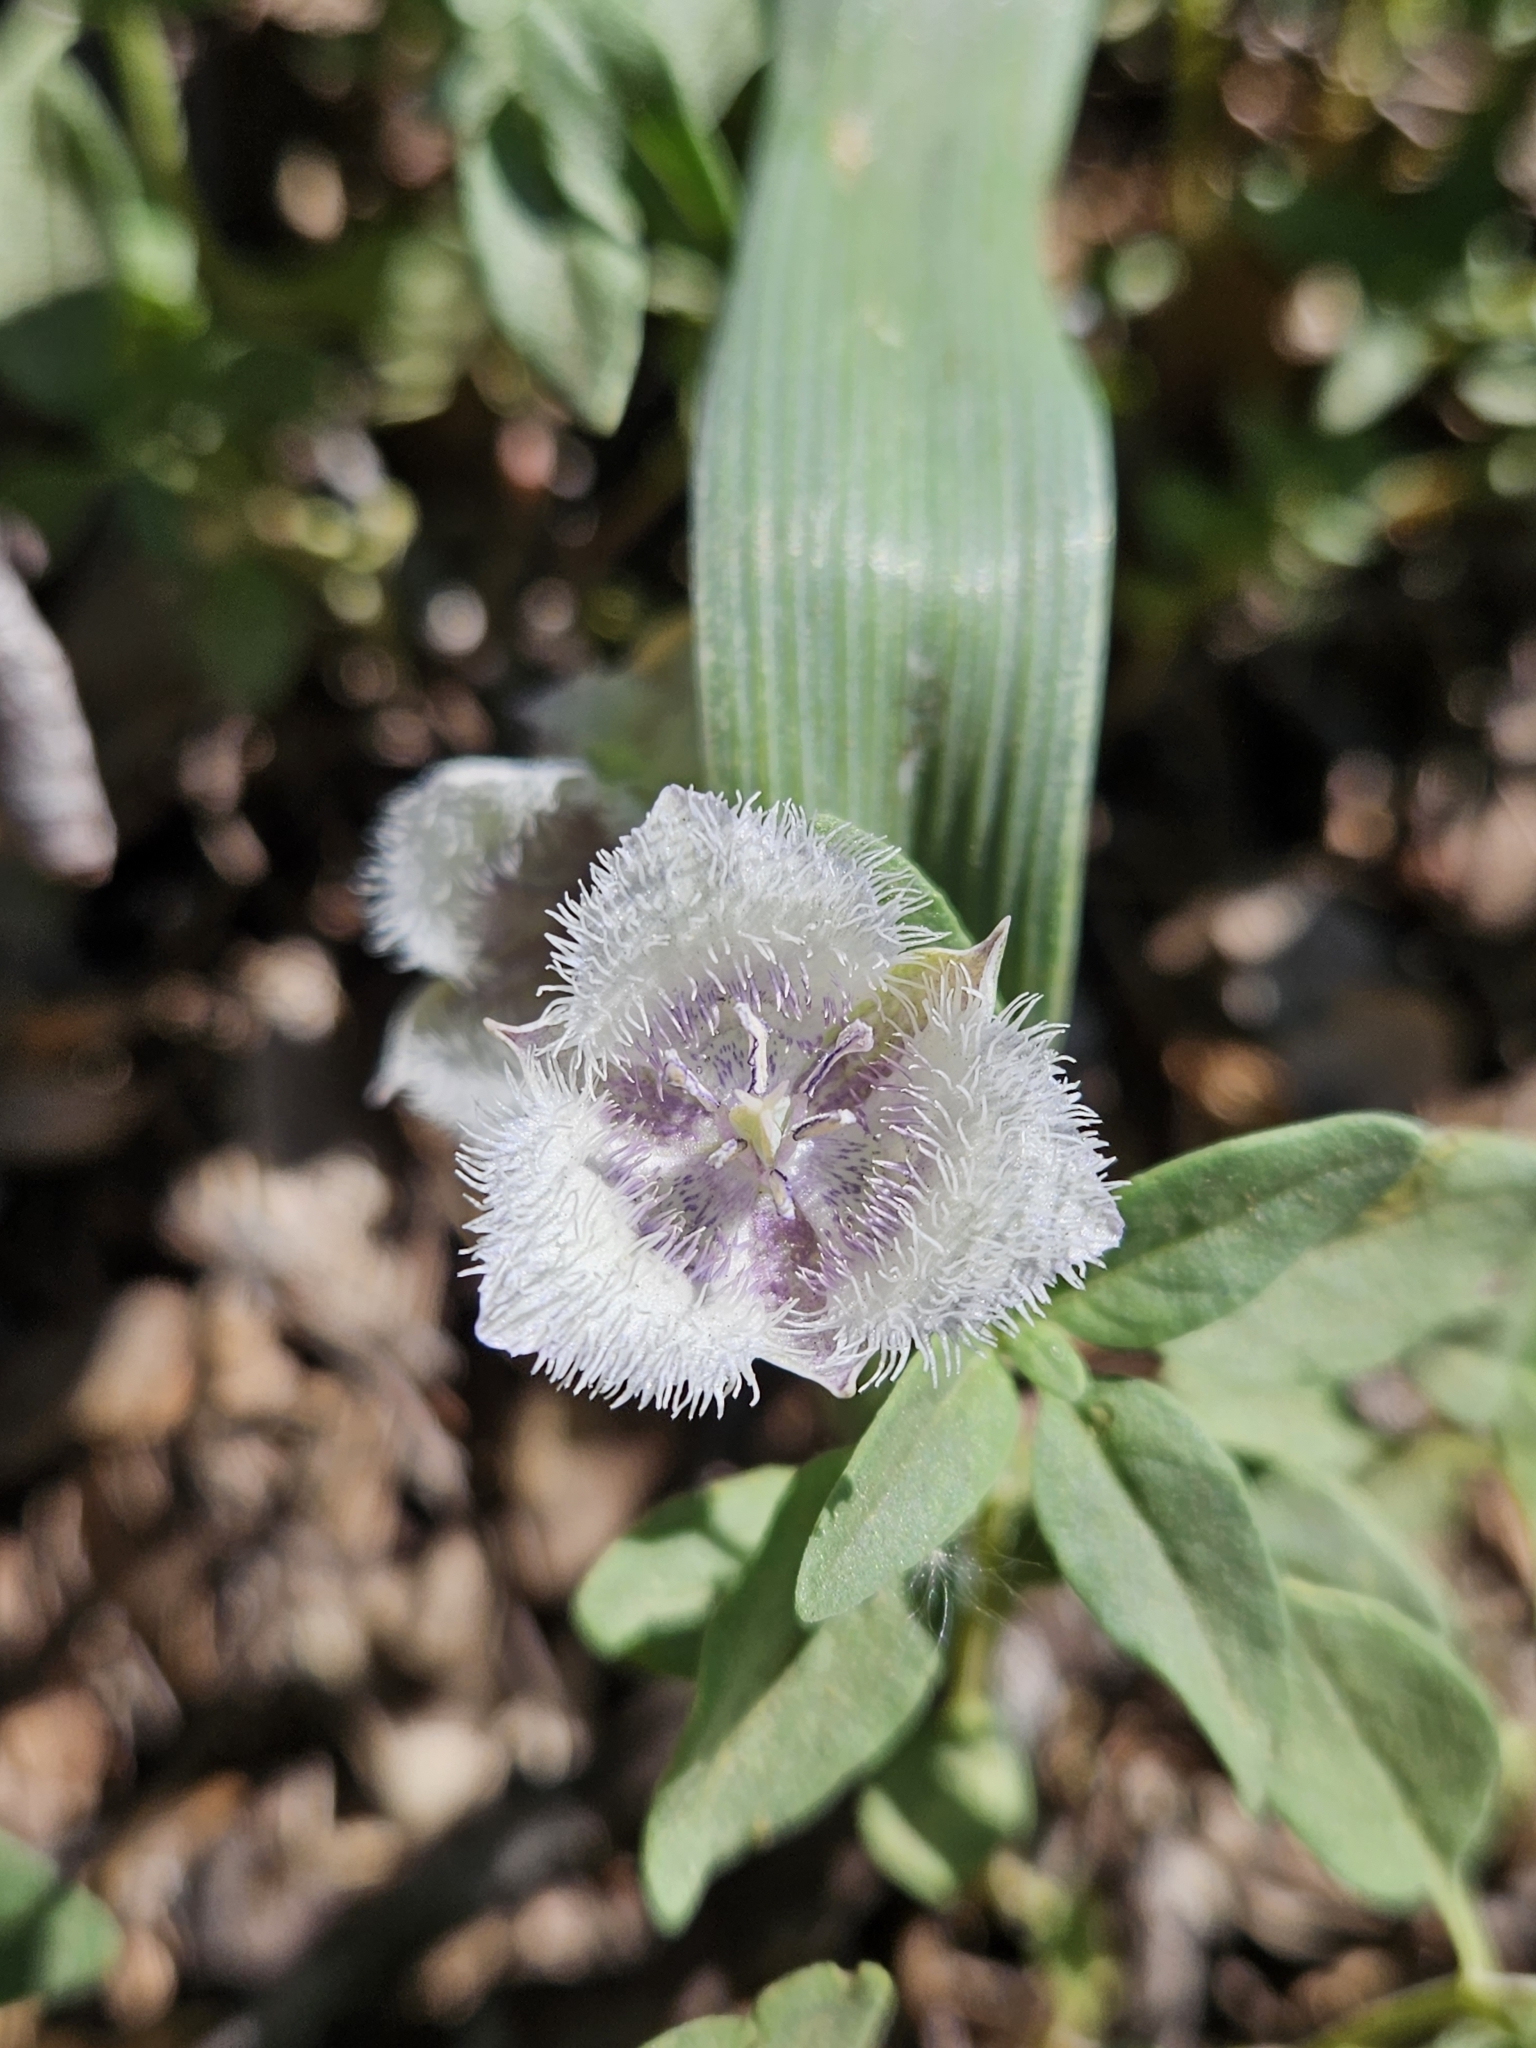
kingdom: Plantae
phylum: Tracheophyta
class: Liliopsida
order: Liliales
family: Liliaceae
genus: Calochortus
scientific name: Calochortus coeruleus
